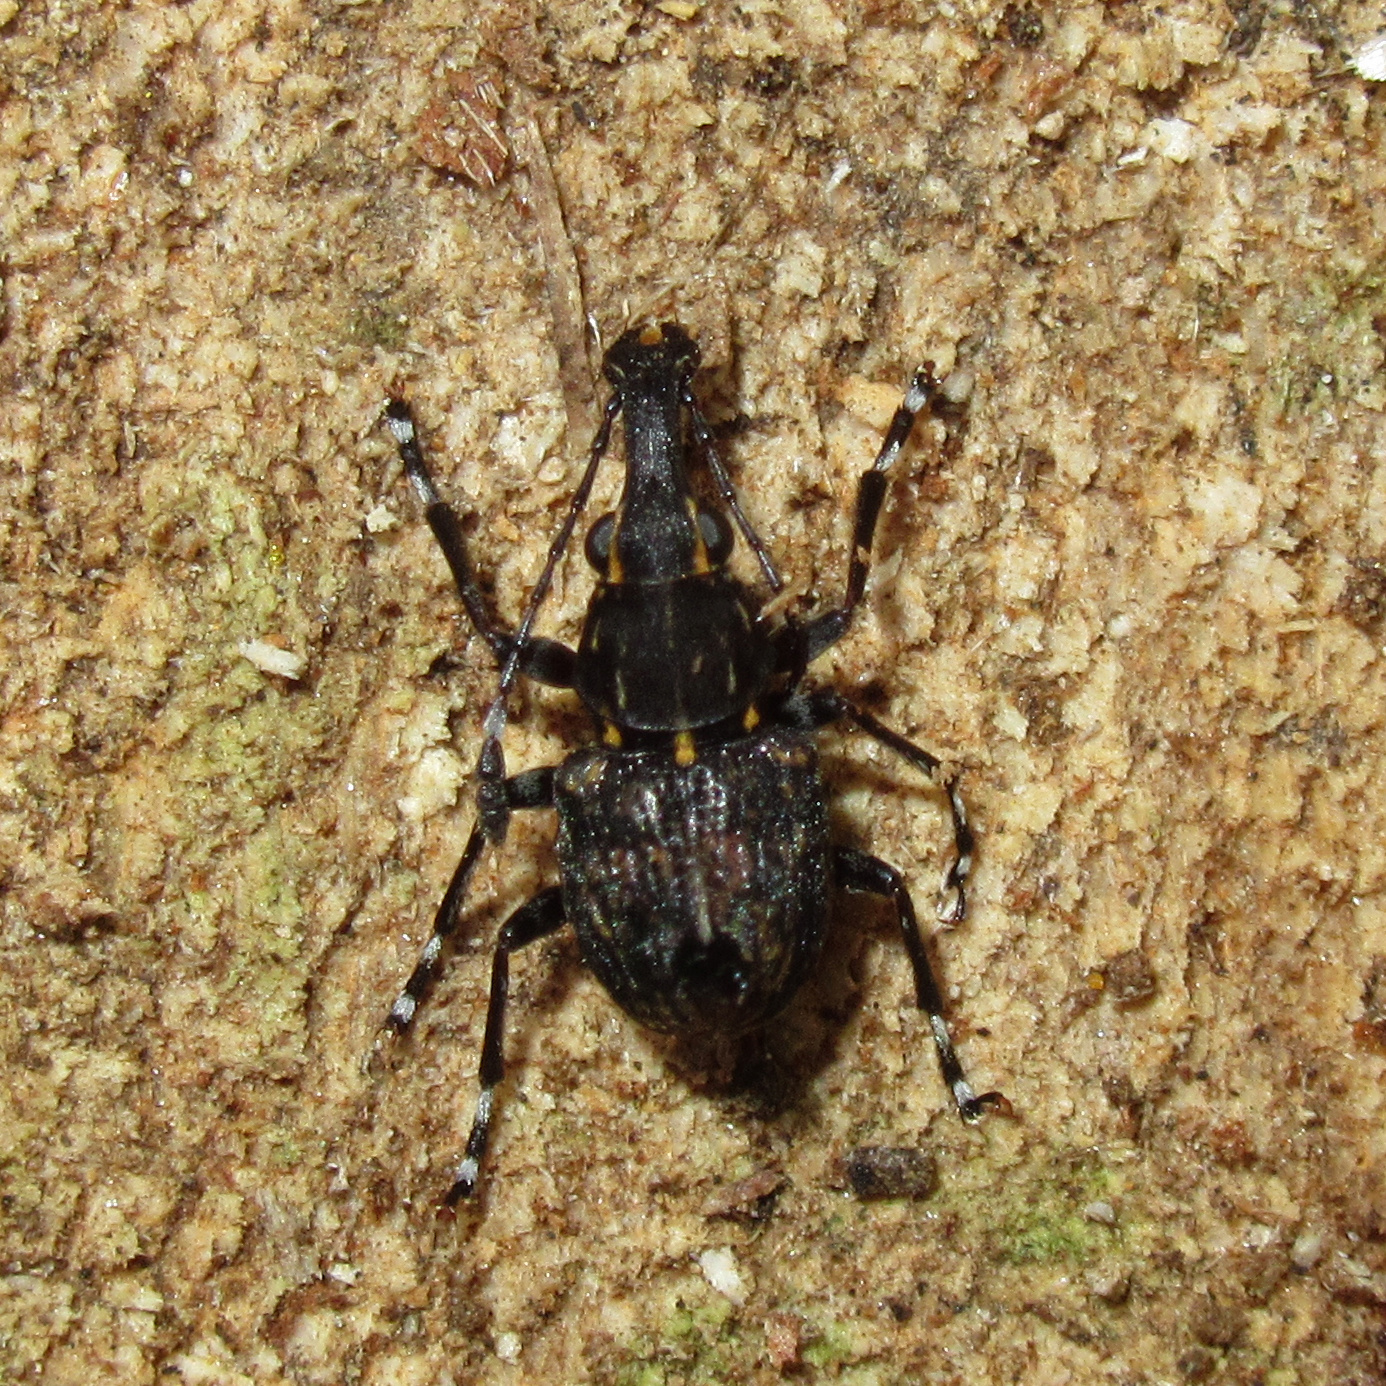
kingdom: Animalia
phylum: Arthropoda
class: Insecta
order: Coleoptera
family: Anthribidae
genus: Hoplorhaphus
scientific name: Hoplorhaphus
